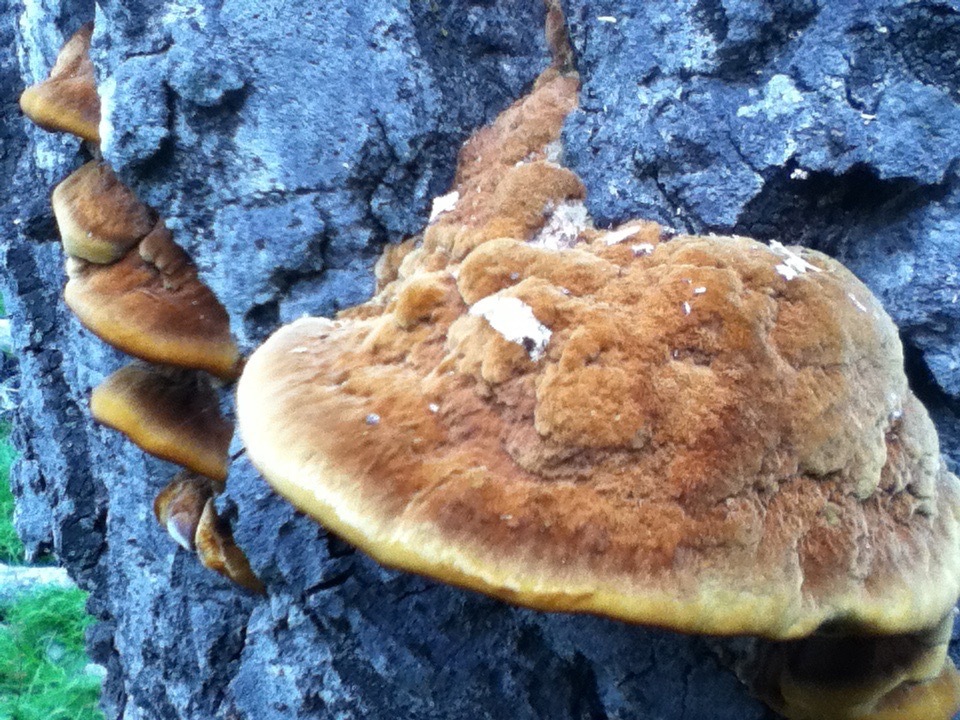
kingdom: Fungi
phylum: Basidiomycota
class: Agaricomycetes
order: Hymenochaetales
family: Hymenochaetaceae
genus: Phellinus
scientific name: Phellinus gilvus
